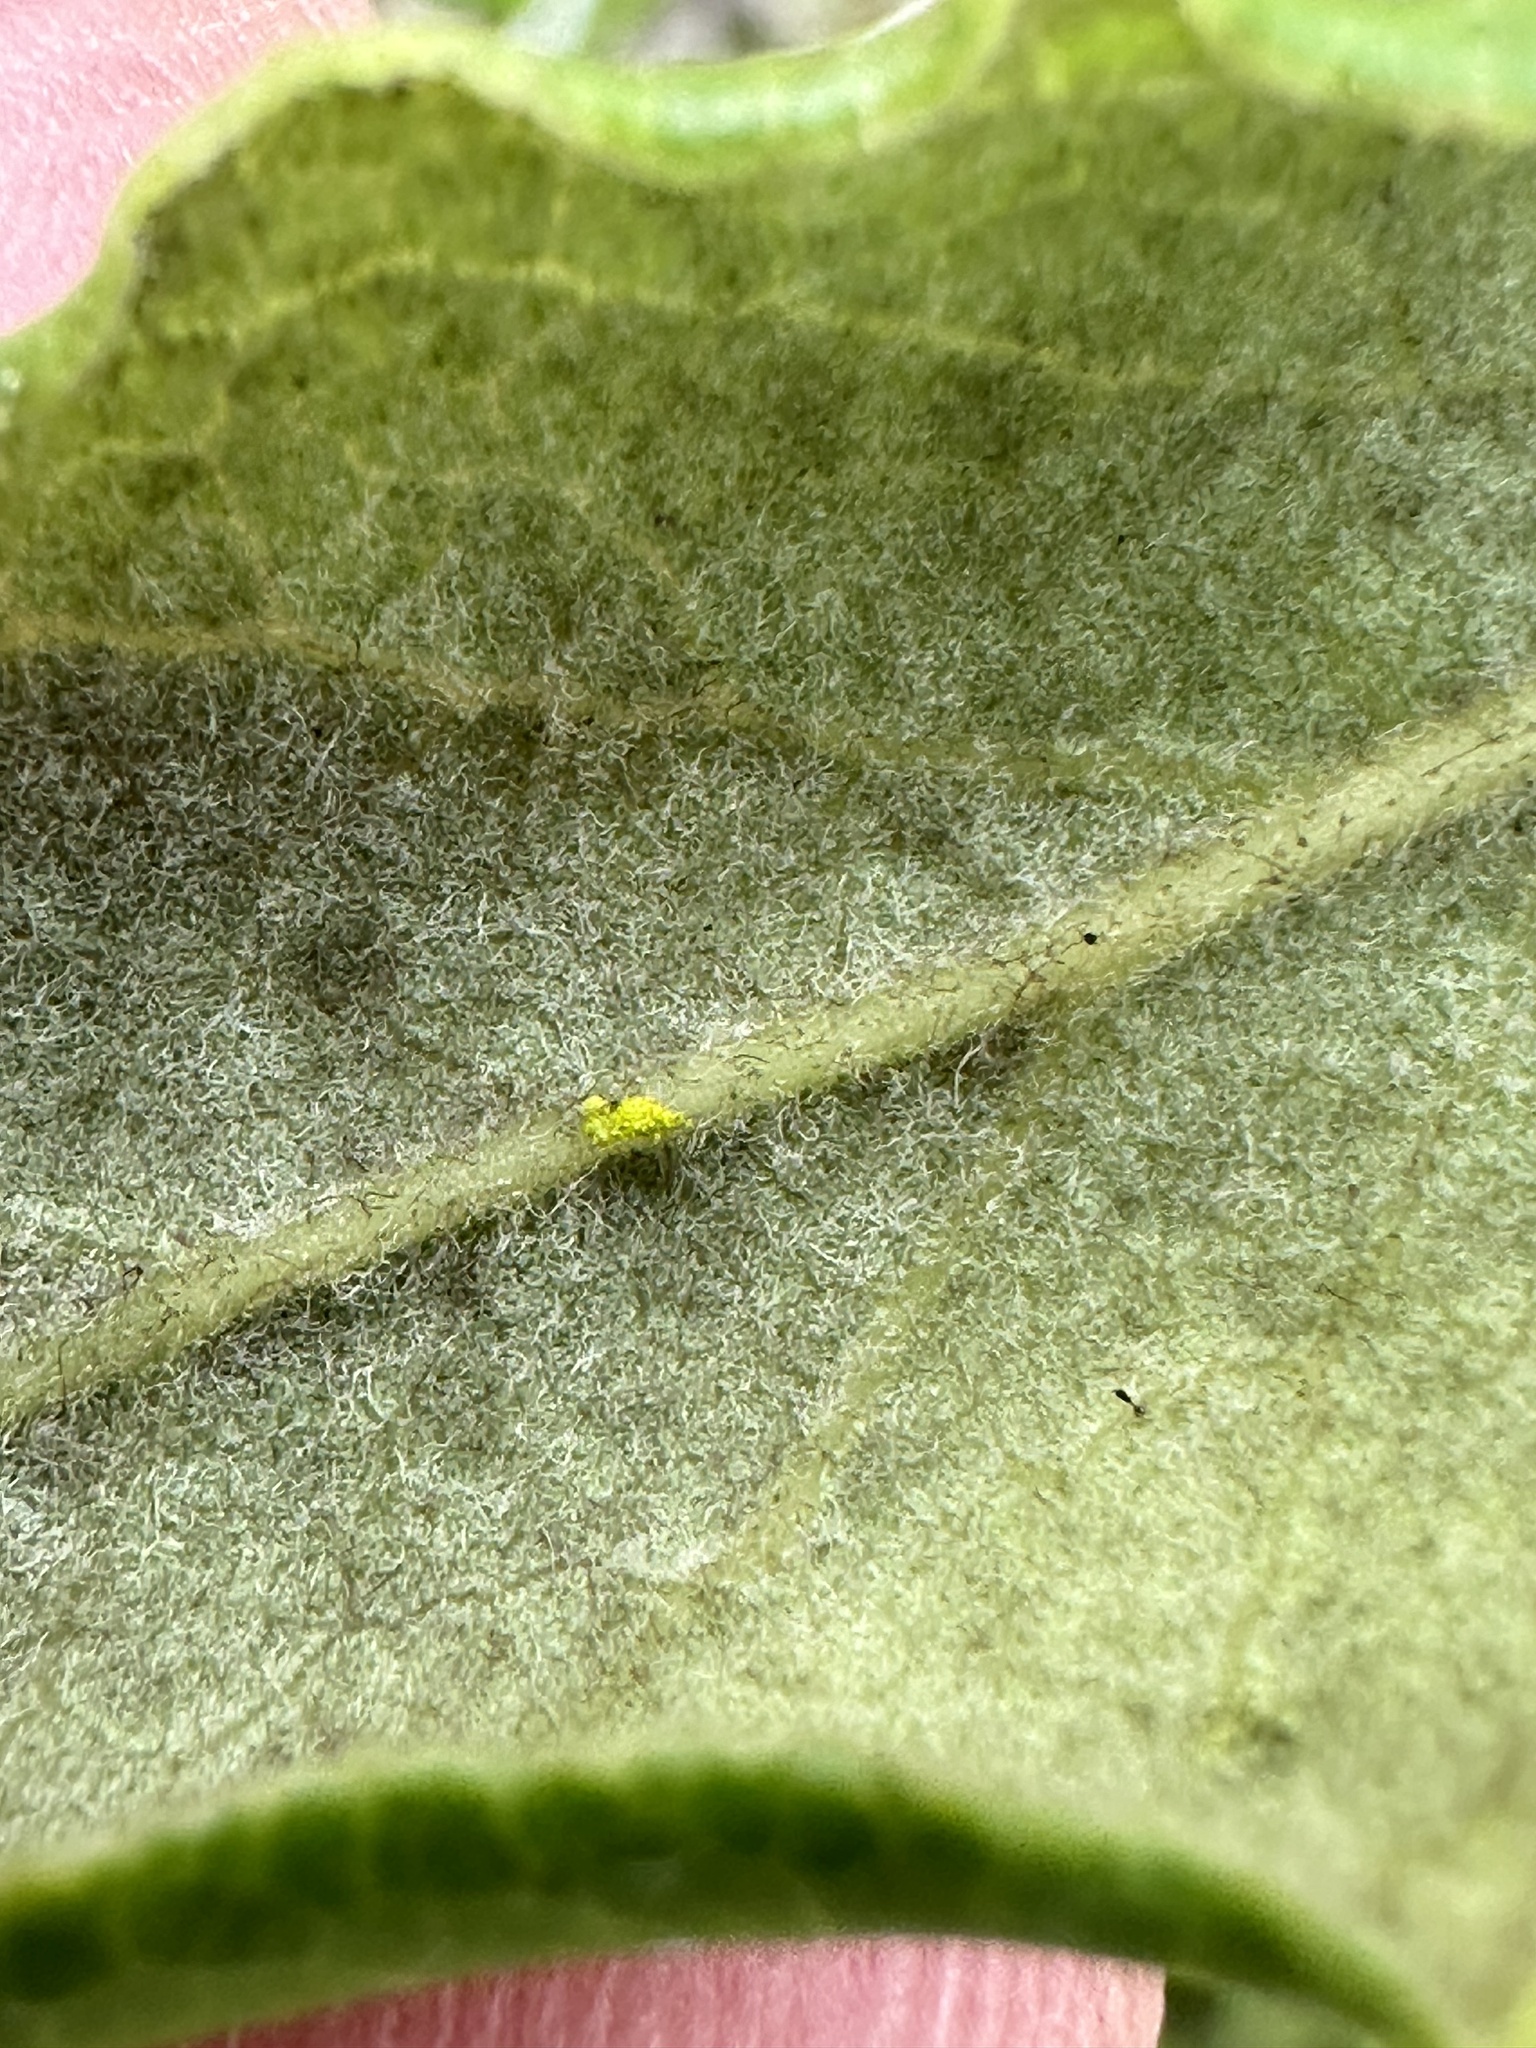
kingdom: Plantae
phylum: Tracheophyta
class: Magnoliopsida
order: Garryales
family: Garryaceae
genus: Garrya
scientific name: Garrya elliptica
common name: Silk-tassel
